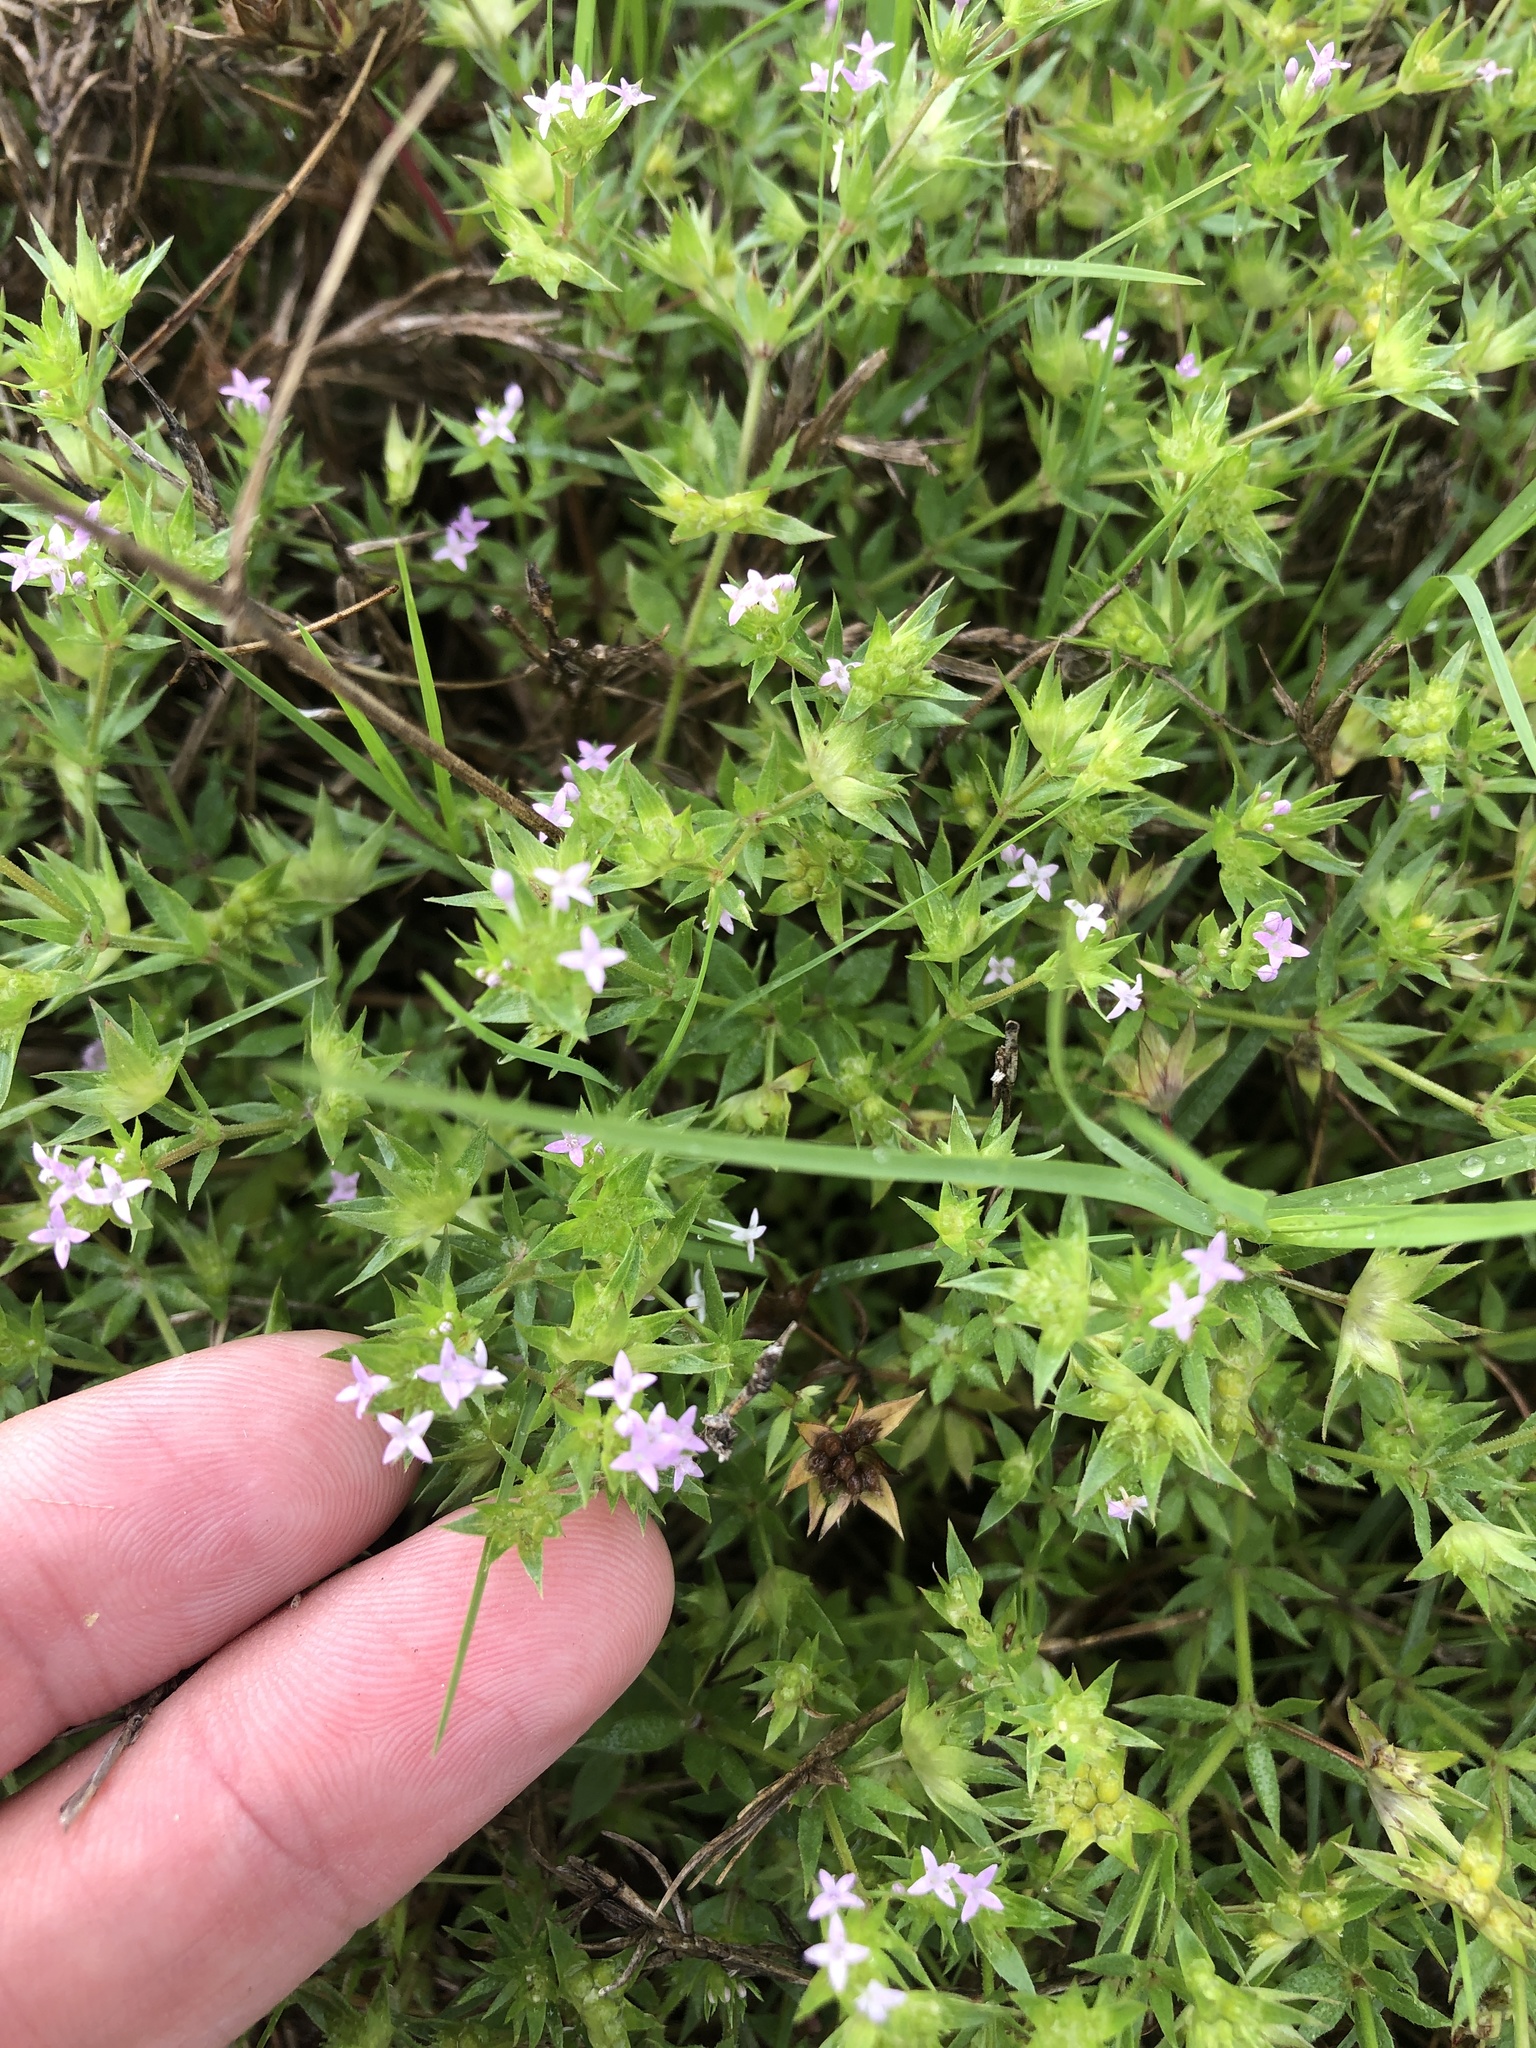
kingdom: Plantae
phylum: Tracheophyta
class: Magnoliopsida
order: Gentianales
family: Rubiaceae
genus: Sherardia
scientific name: Sherardia arvensis
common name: Field madder
